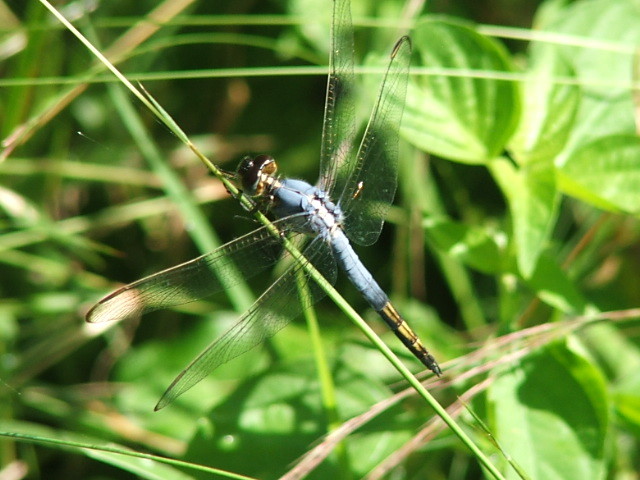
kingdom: Animalia
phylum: Arthropoda
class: Insecta
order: Odonata
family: Libellulidae
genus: Nesciothemis
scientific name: Nesciothemis farinosa
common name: Eastern blacktail
